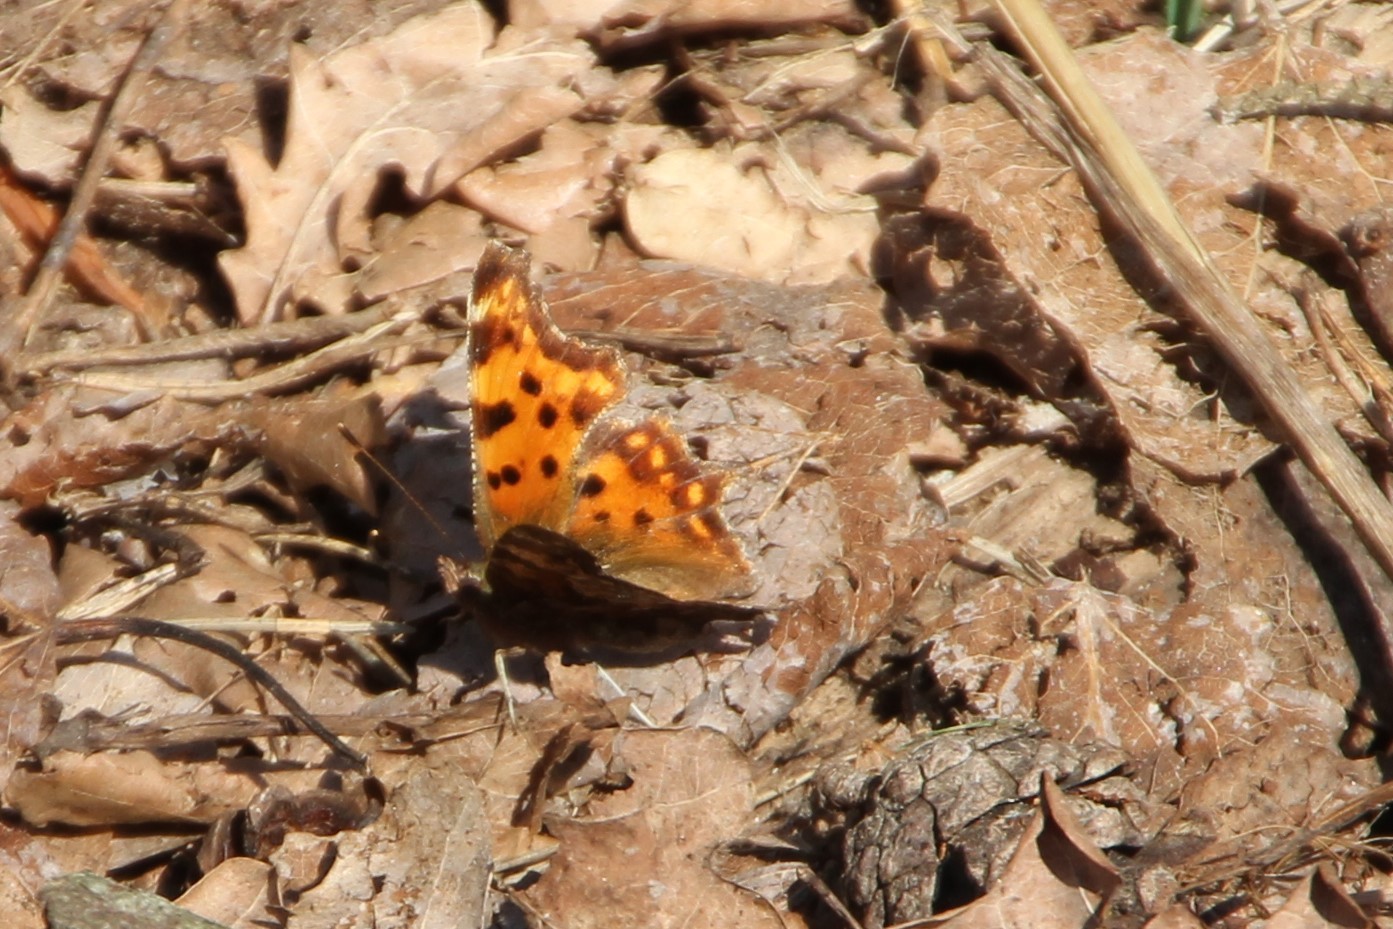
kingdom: Animalia
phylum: Arthropoda
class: Insecta
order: Lepidoptera
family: Nymphalidae
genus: Polygonia
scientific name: Polygonia c-album
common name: Comma
